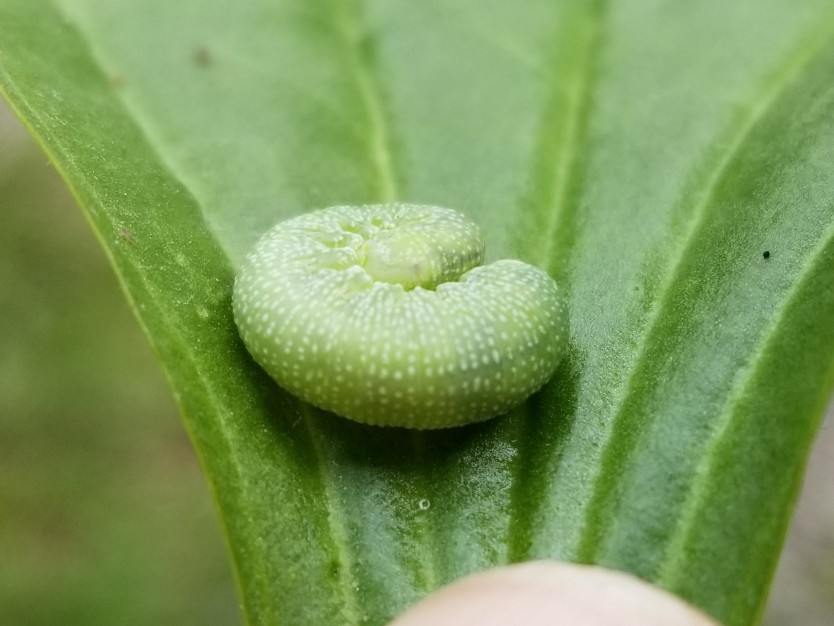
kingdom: Animalia
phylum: Arthropoda
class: Insecta
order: Hymenoptera
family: Cimbicidae
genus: Trichiosoma
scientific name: Trichiosoma triangulum
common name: Giant birch sawfly
